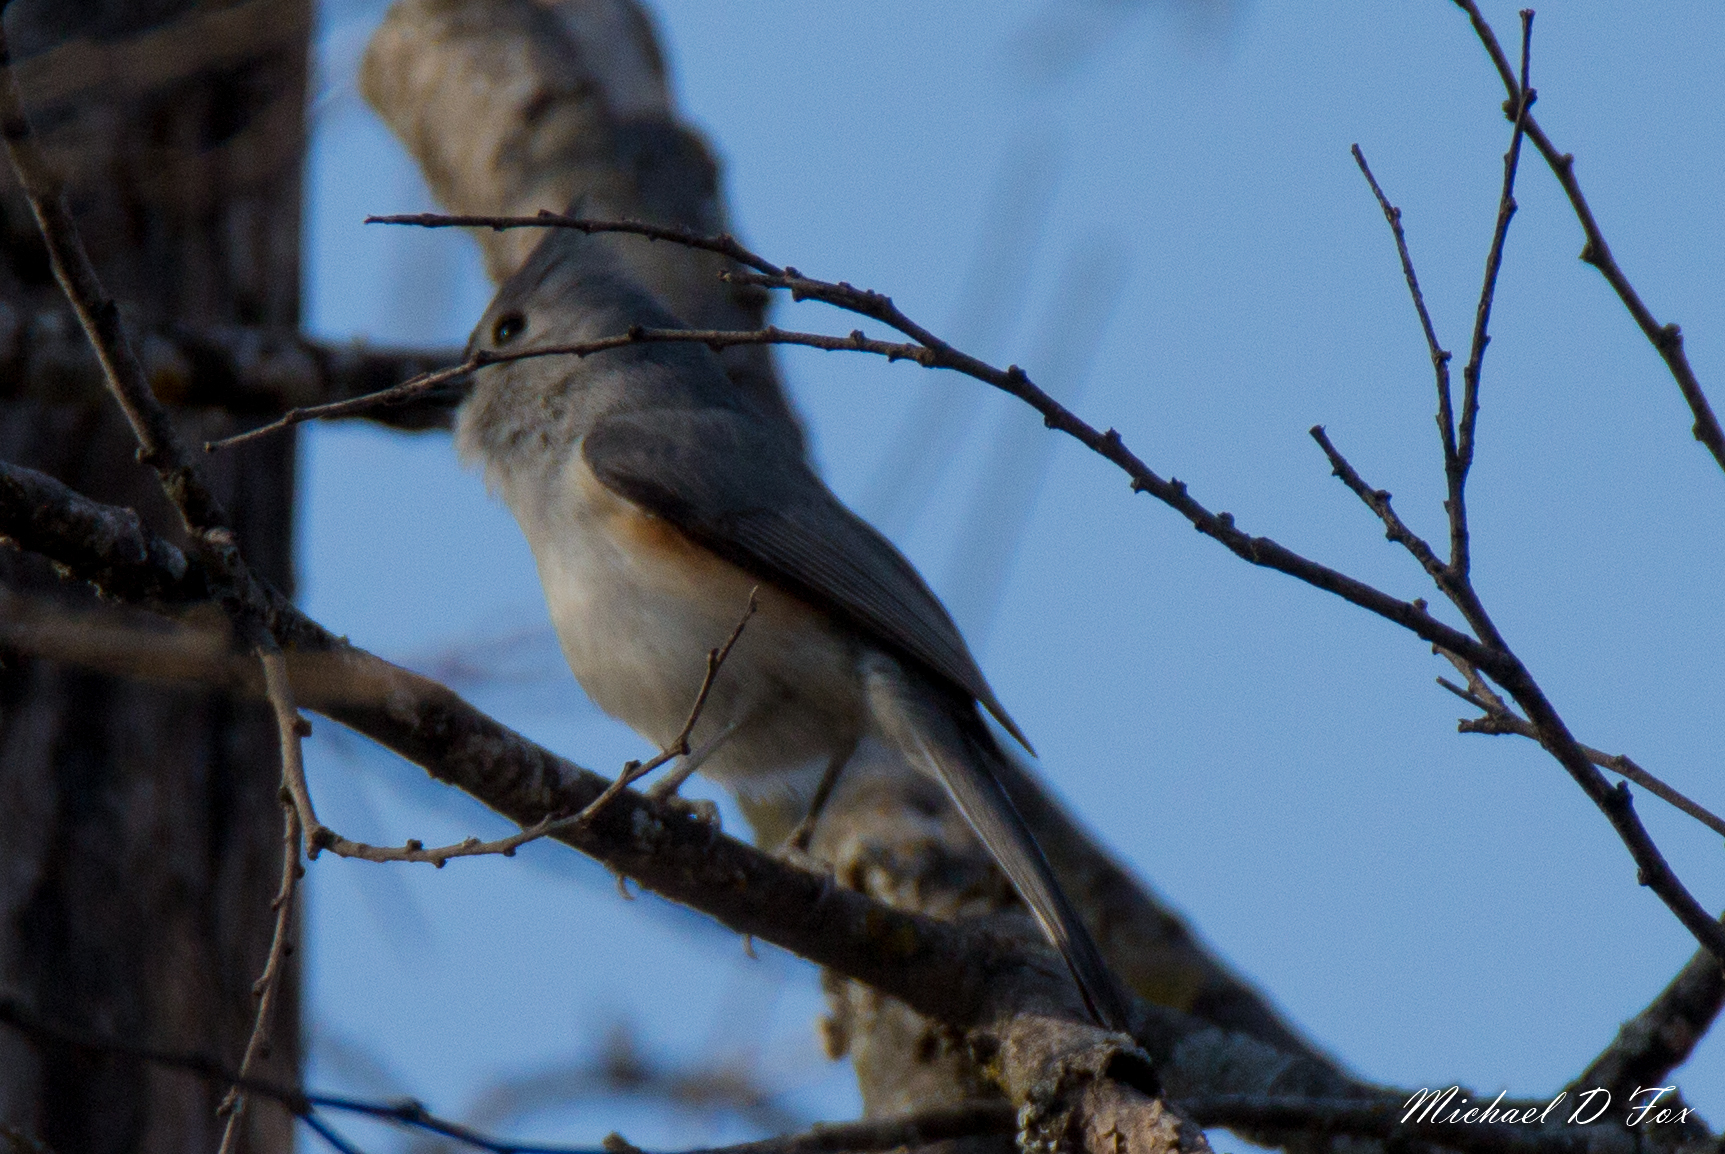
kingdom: Animalia
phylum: Chordata
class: Aves
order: Passeriformes
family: Paridae
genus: Baeolophus
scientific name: Baeolophus bicolor
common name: Tufted titmouse
